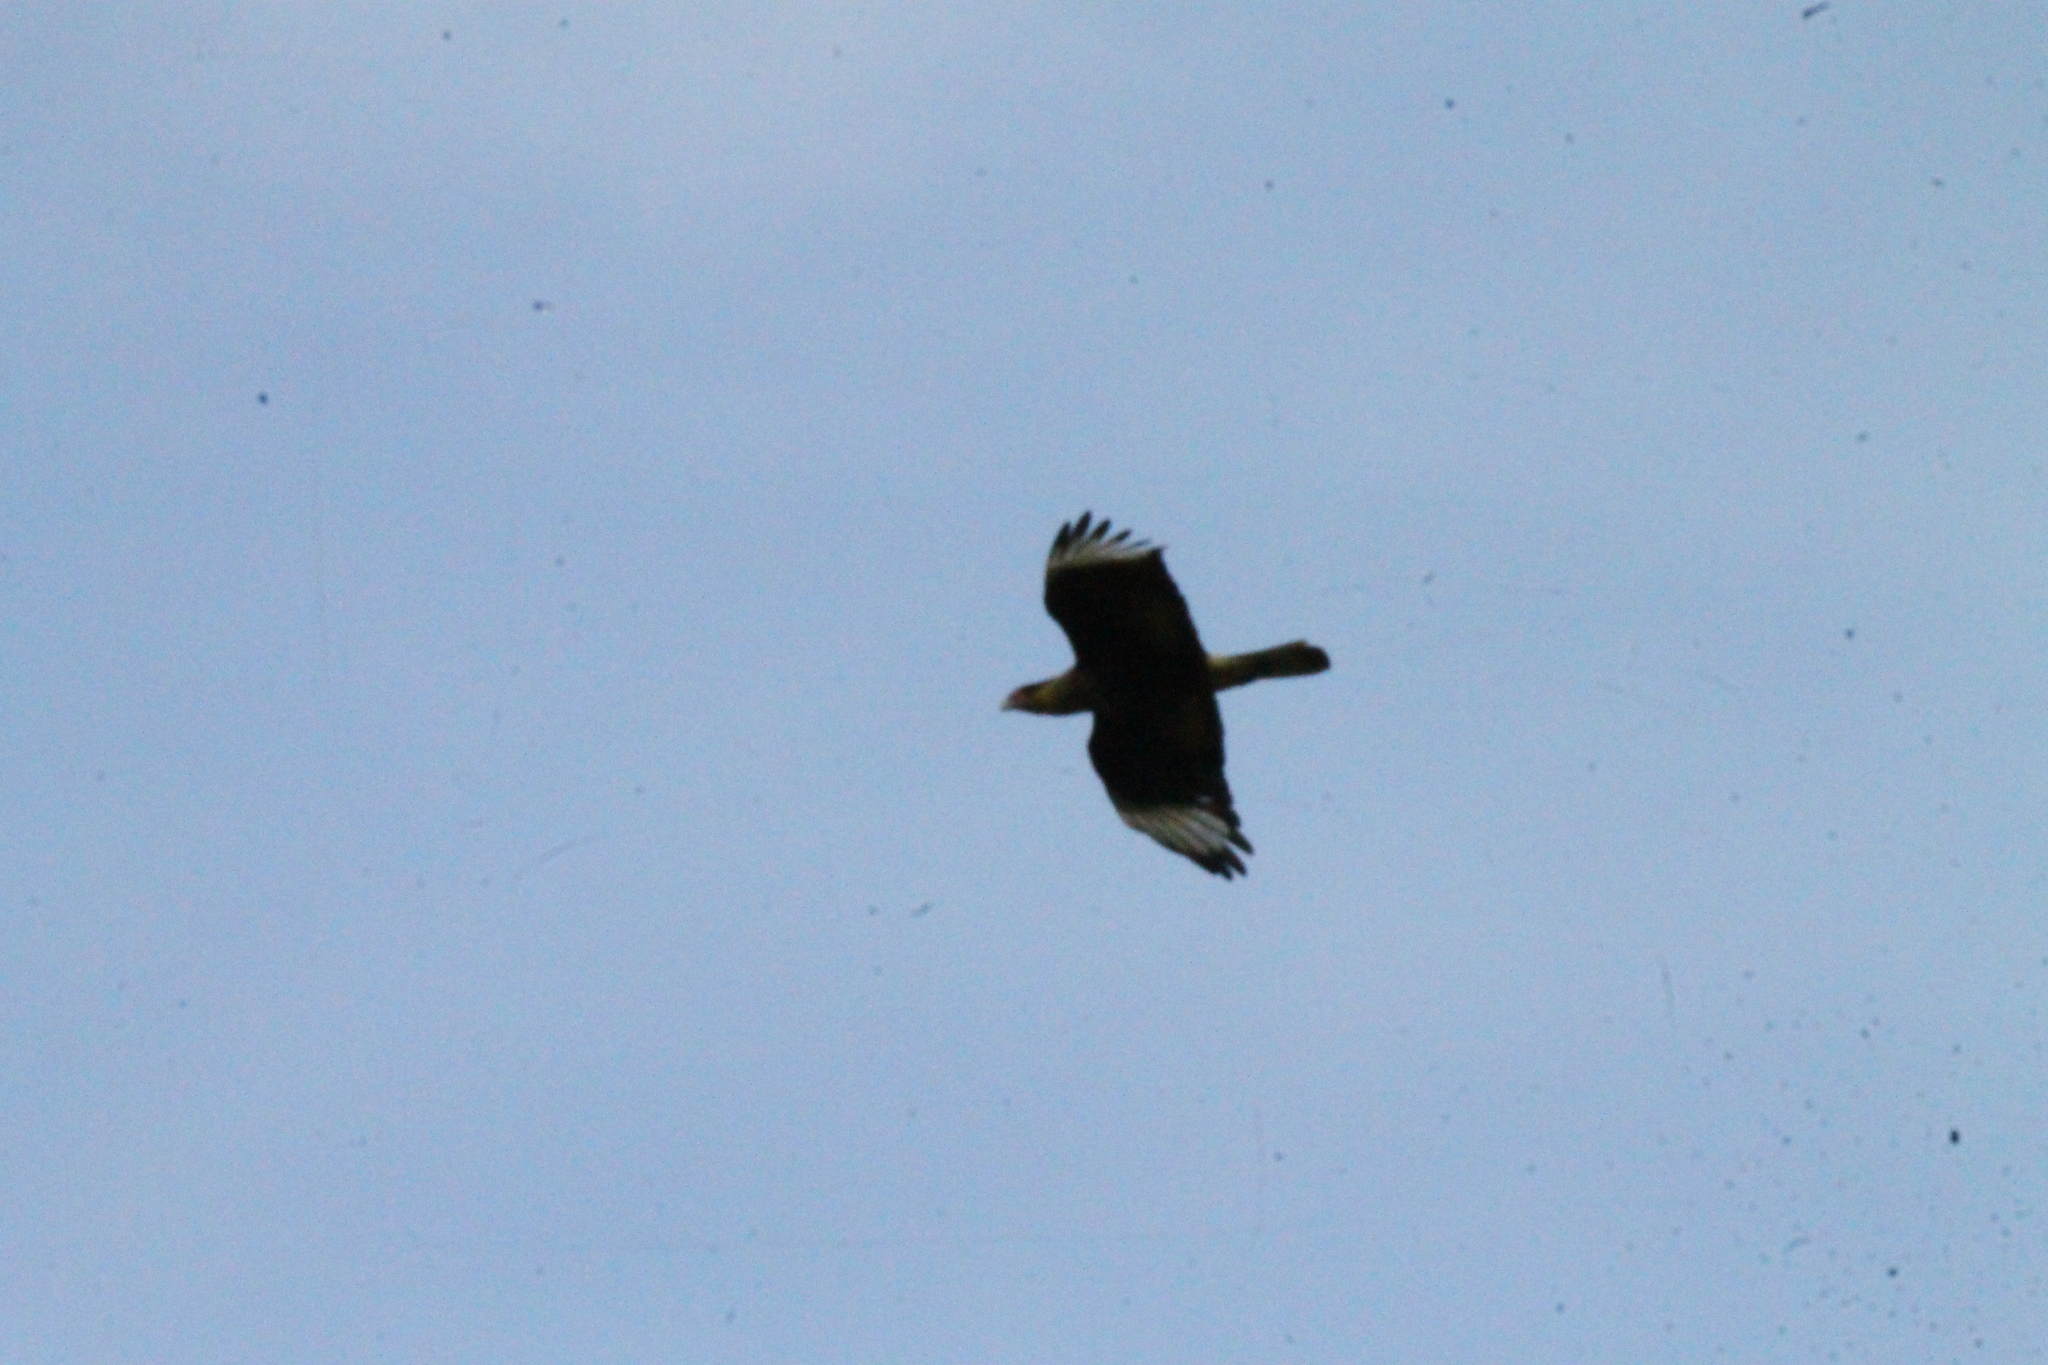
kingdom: Animalia
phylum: Chordata
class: Aves
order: Falconiformes
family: Falconidae
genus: Caracara
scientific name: Caracara plancus
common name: Southern caracara
